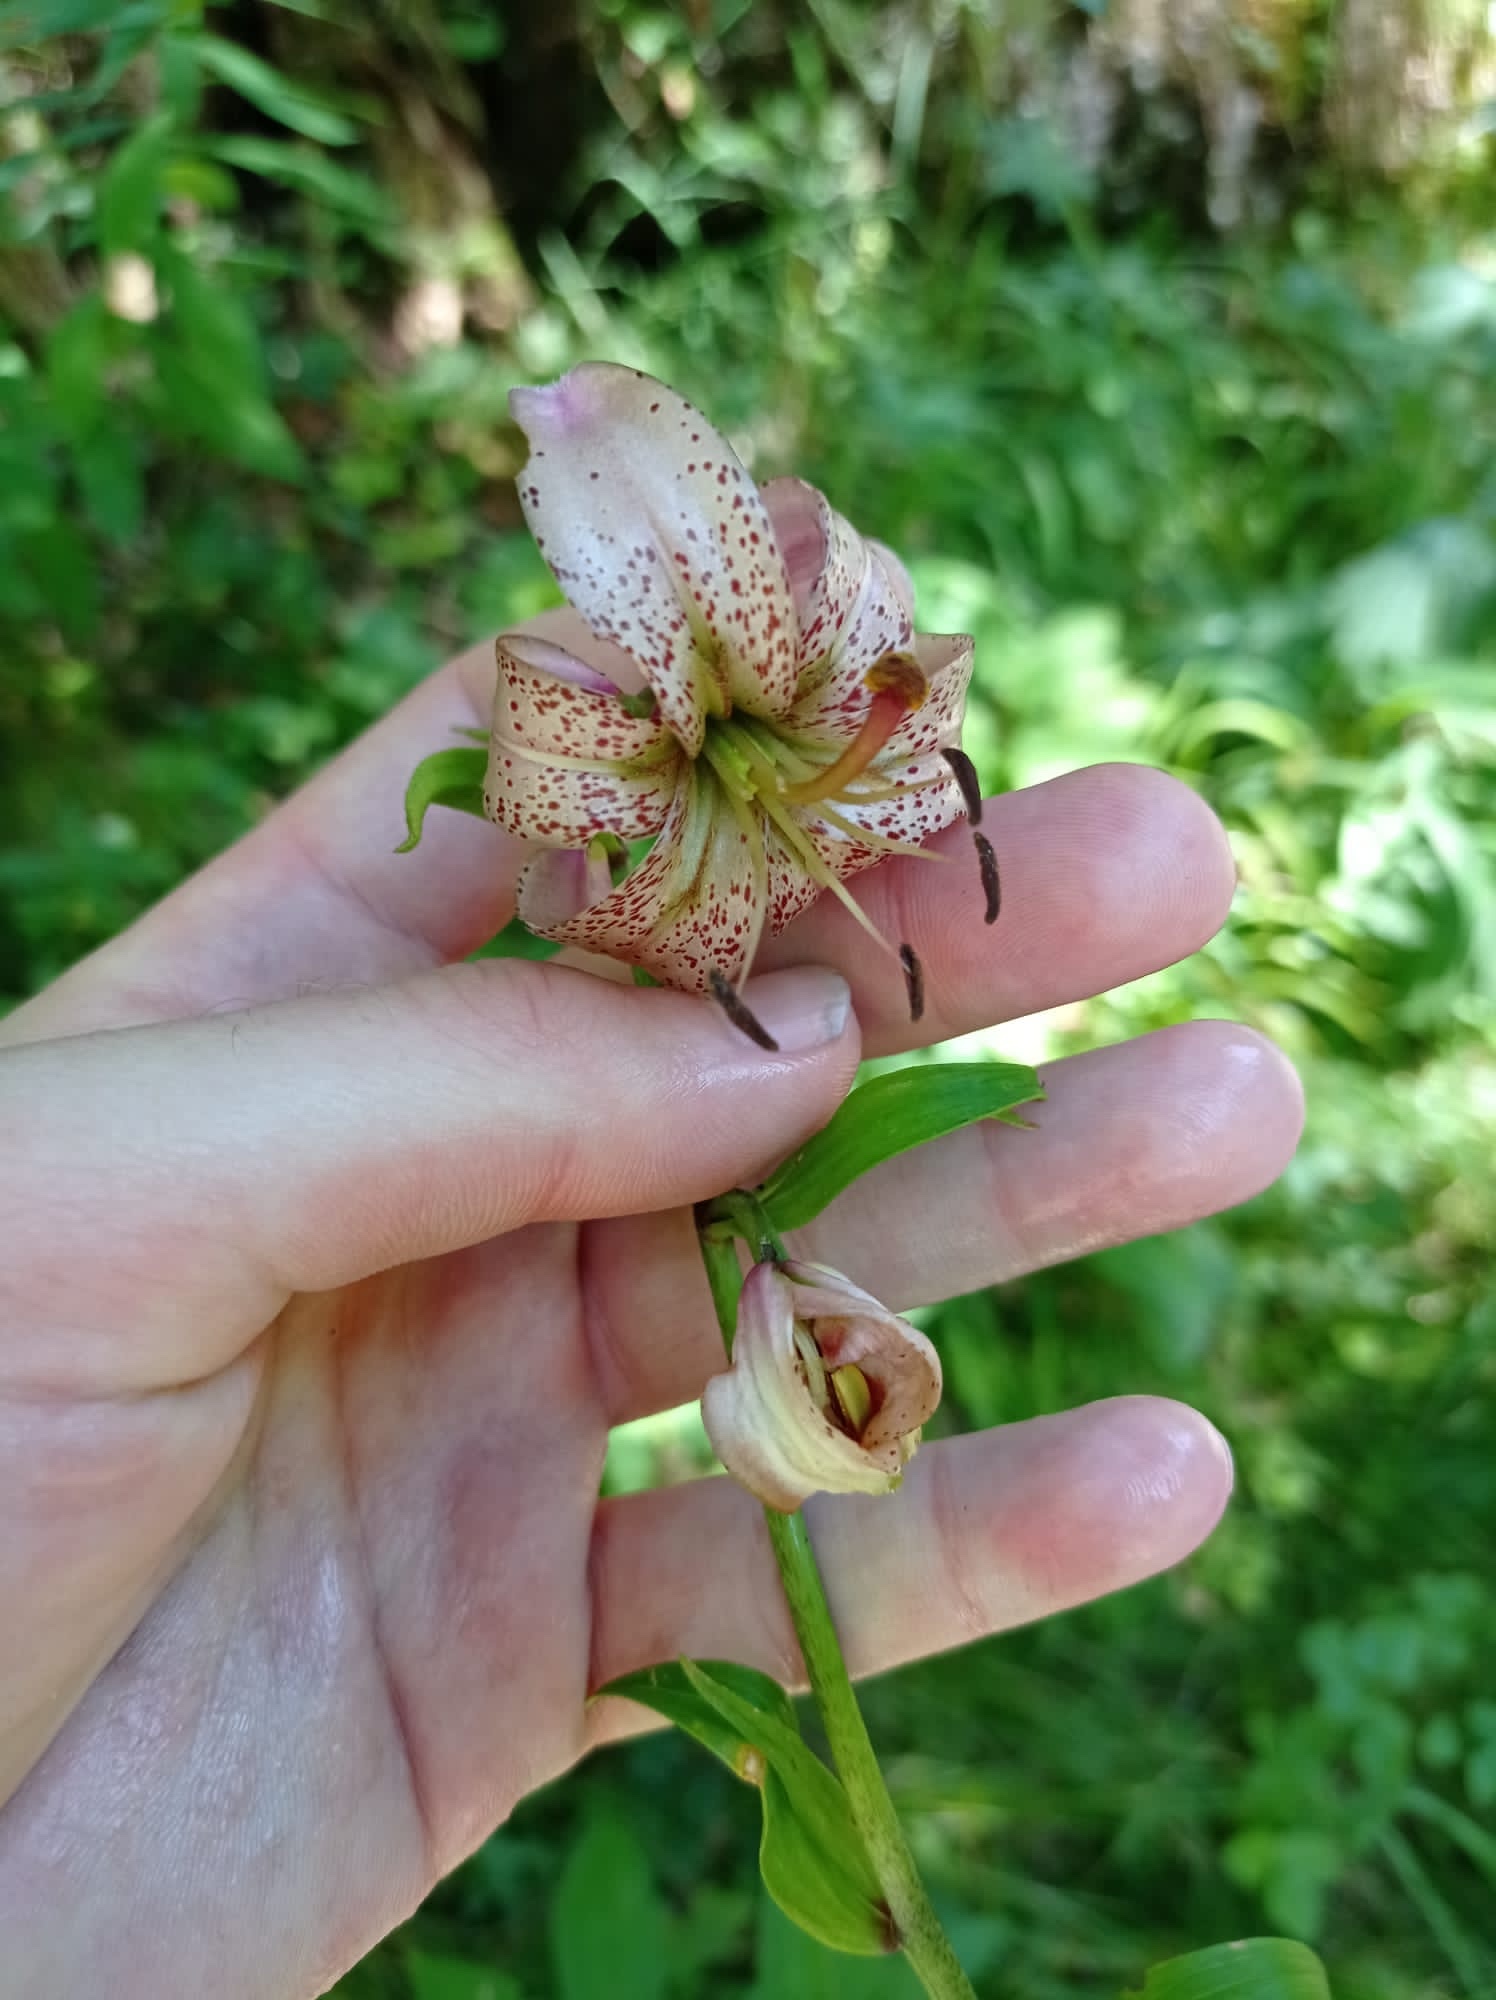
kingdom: Plantae
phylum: Tracheophyta
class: Liliopsida
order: Liliales
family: Liliaceae
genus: Lilium
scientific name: Lilium martagon
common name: Martagon lily
